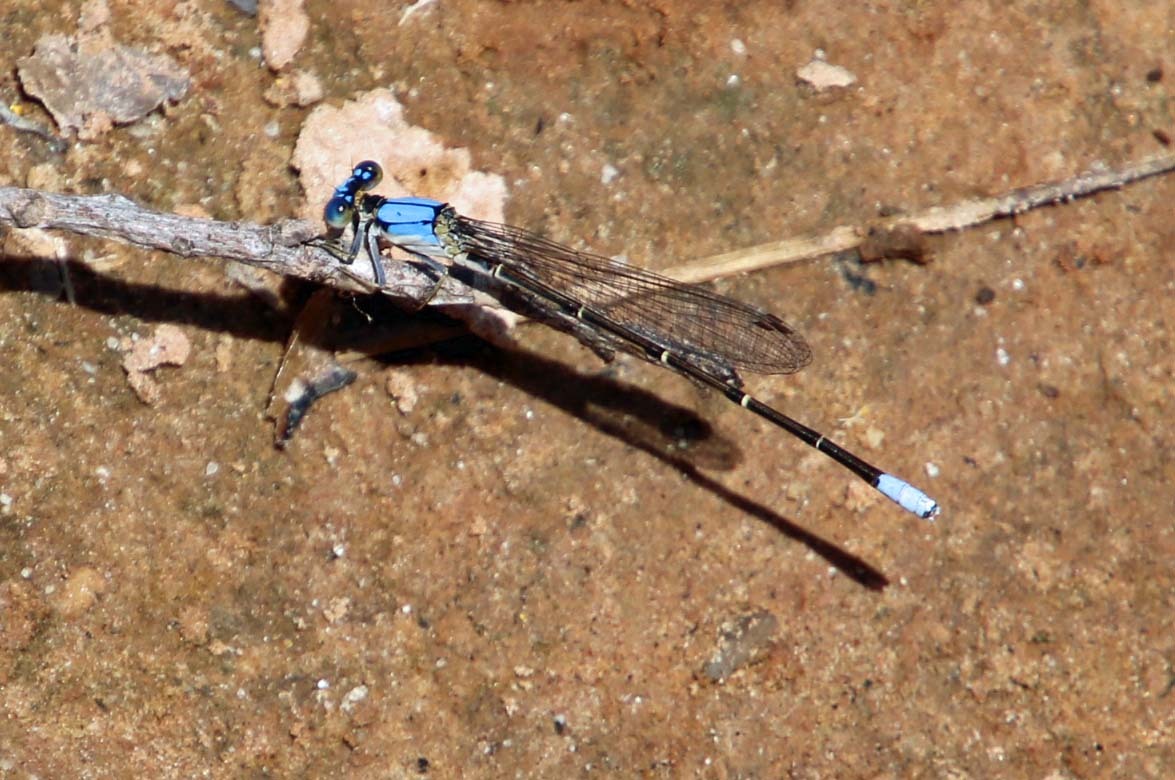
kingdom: Animalia
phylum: Arthropoda
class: Insecta
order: Odonata
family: Coenagrionidae
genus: Argia
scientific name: Argia apicalis
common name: Blue-fronted dancer
